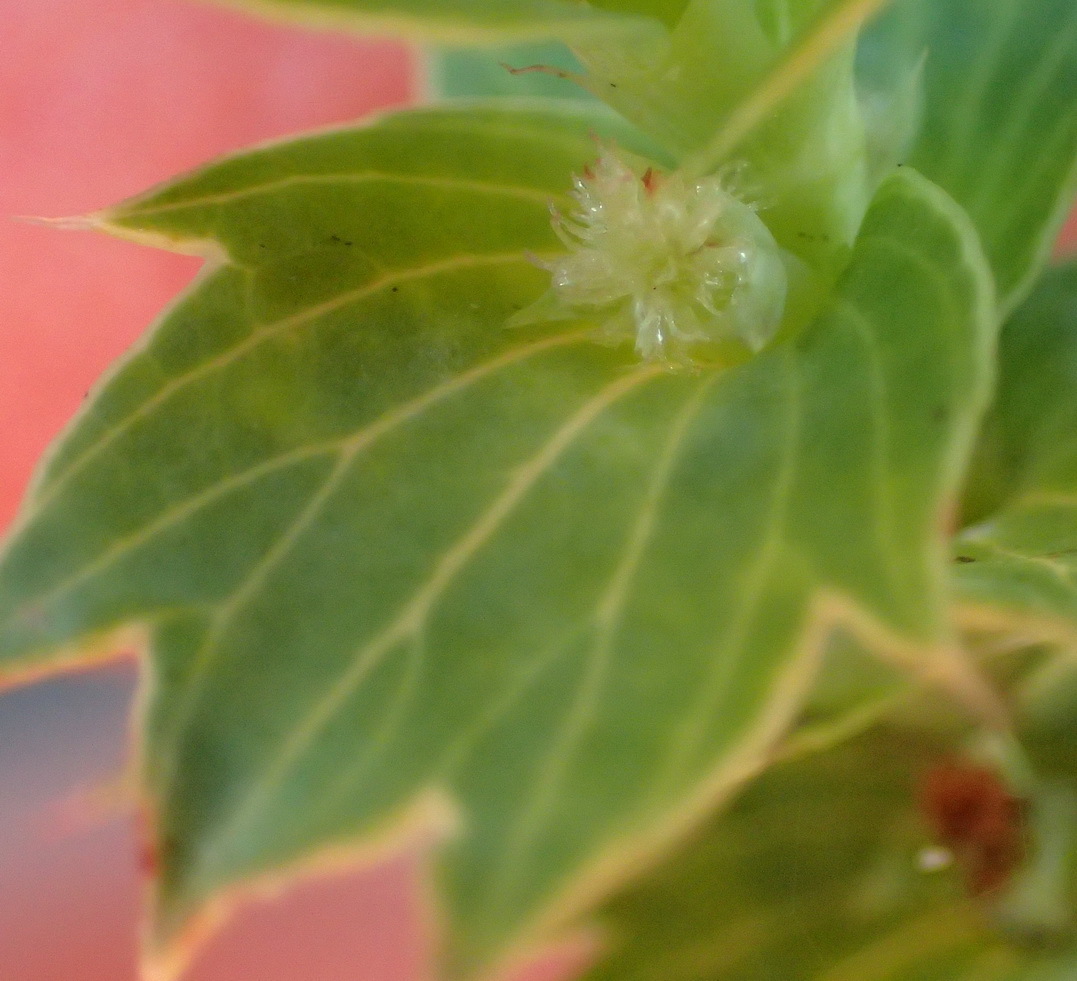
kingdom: Plantae
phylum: Tracheophyta
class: Magnoliopsida
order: Rosales
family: Rosaceae
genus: Cliffortia
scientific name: Cliffortia ilicifolia
